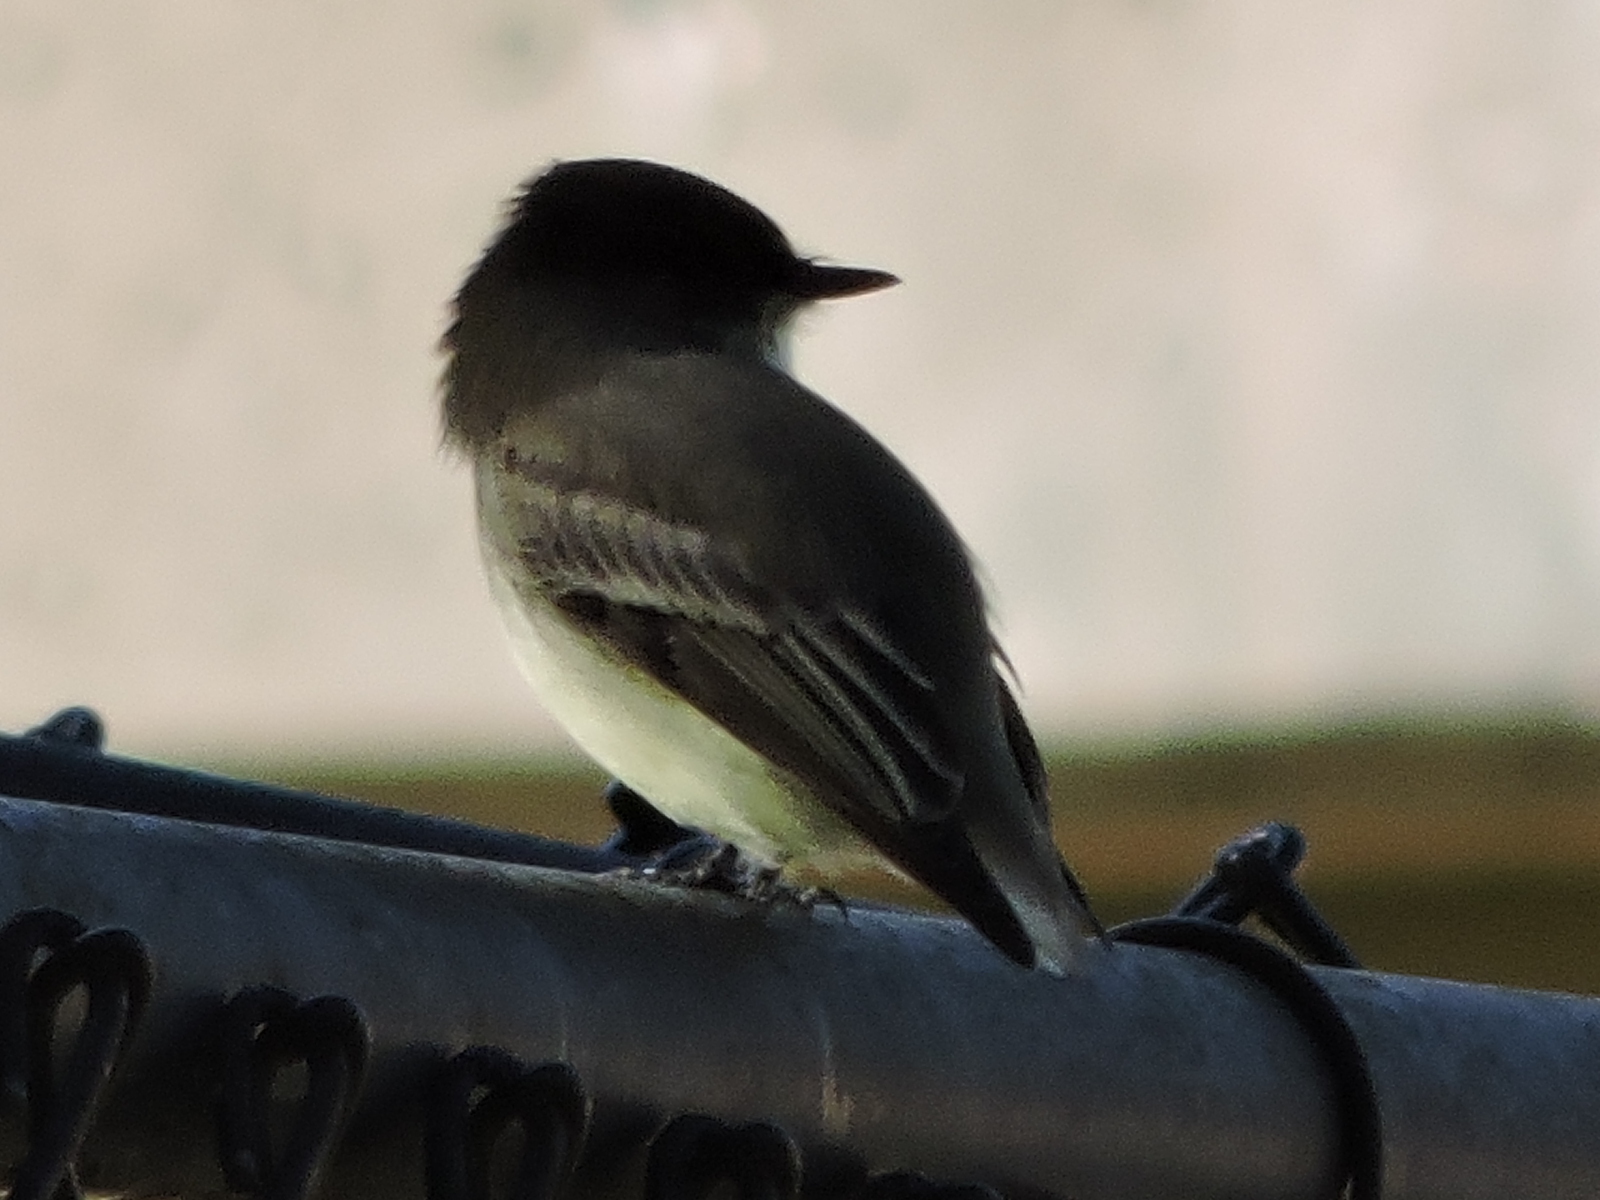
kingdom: Animalia
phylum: Chordata
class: Aves
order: Passeriformes
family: Tyrannidae
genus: Sayornis
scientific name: Sayornis phoebe
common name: Eastern phoebe
